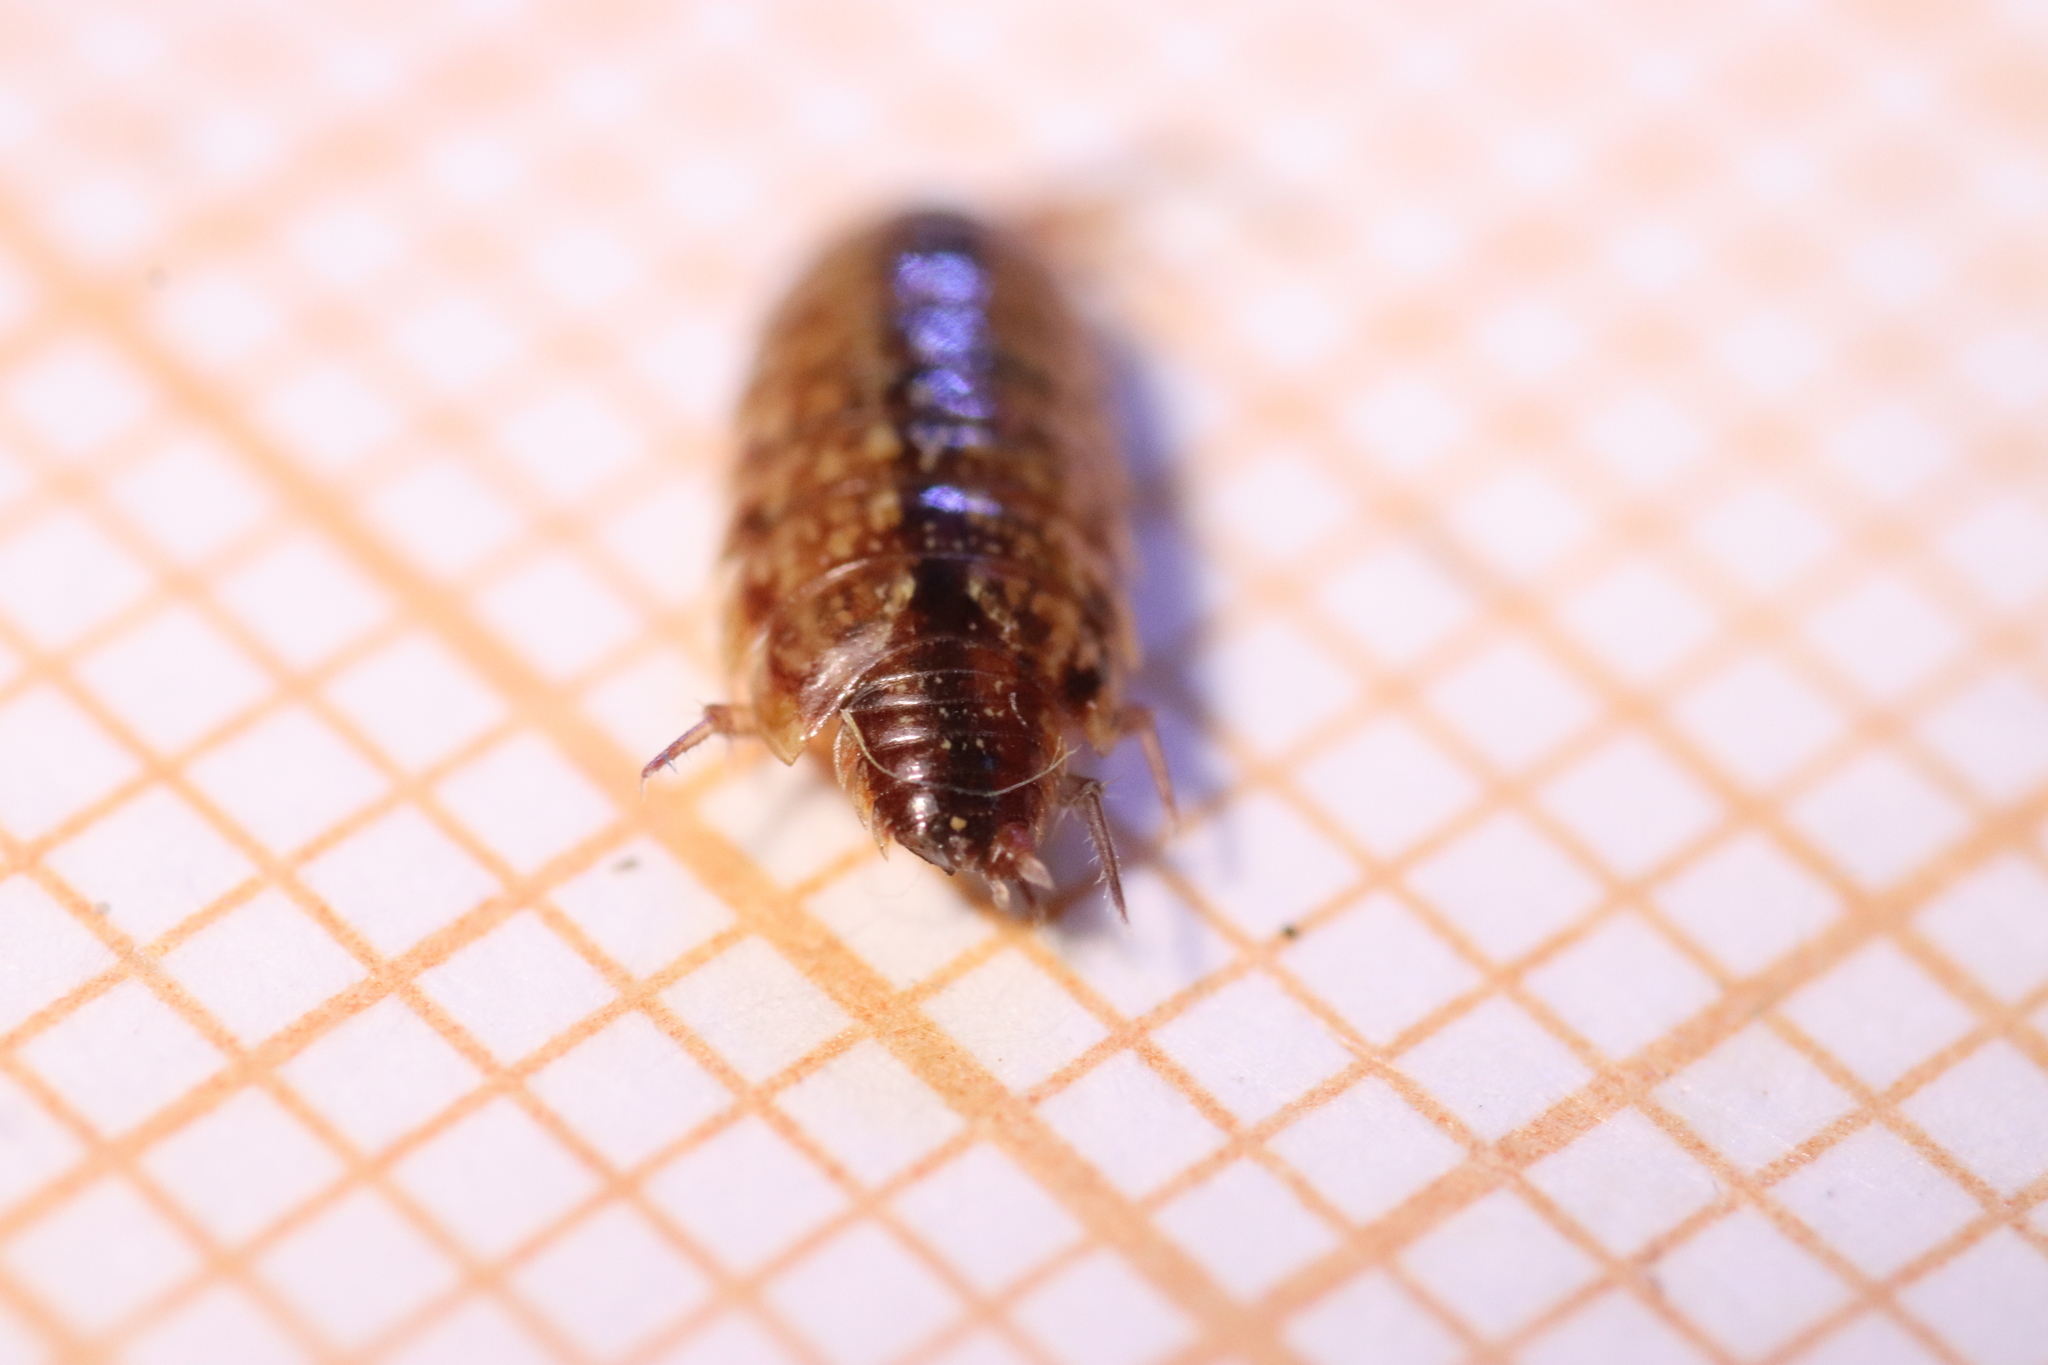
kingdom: Animalia
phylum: Arthropoda
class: Malacostraca
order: Isopoda
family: Philosciidae
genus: Philoscia
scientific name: Philoscia affinis
